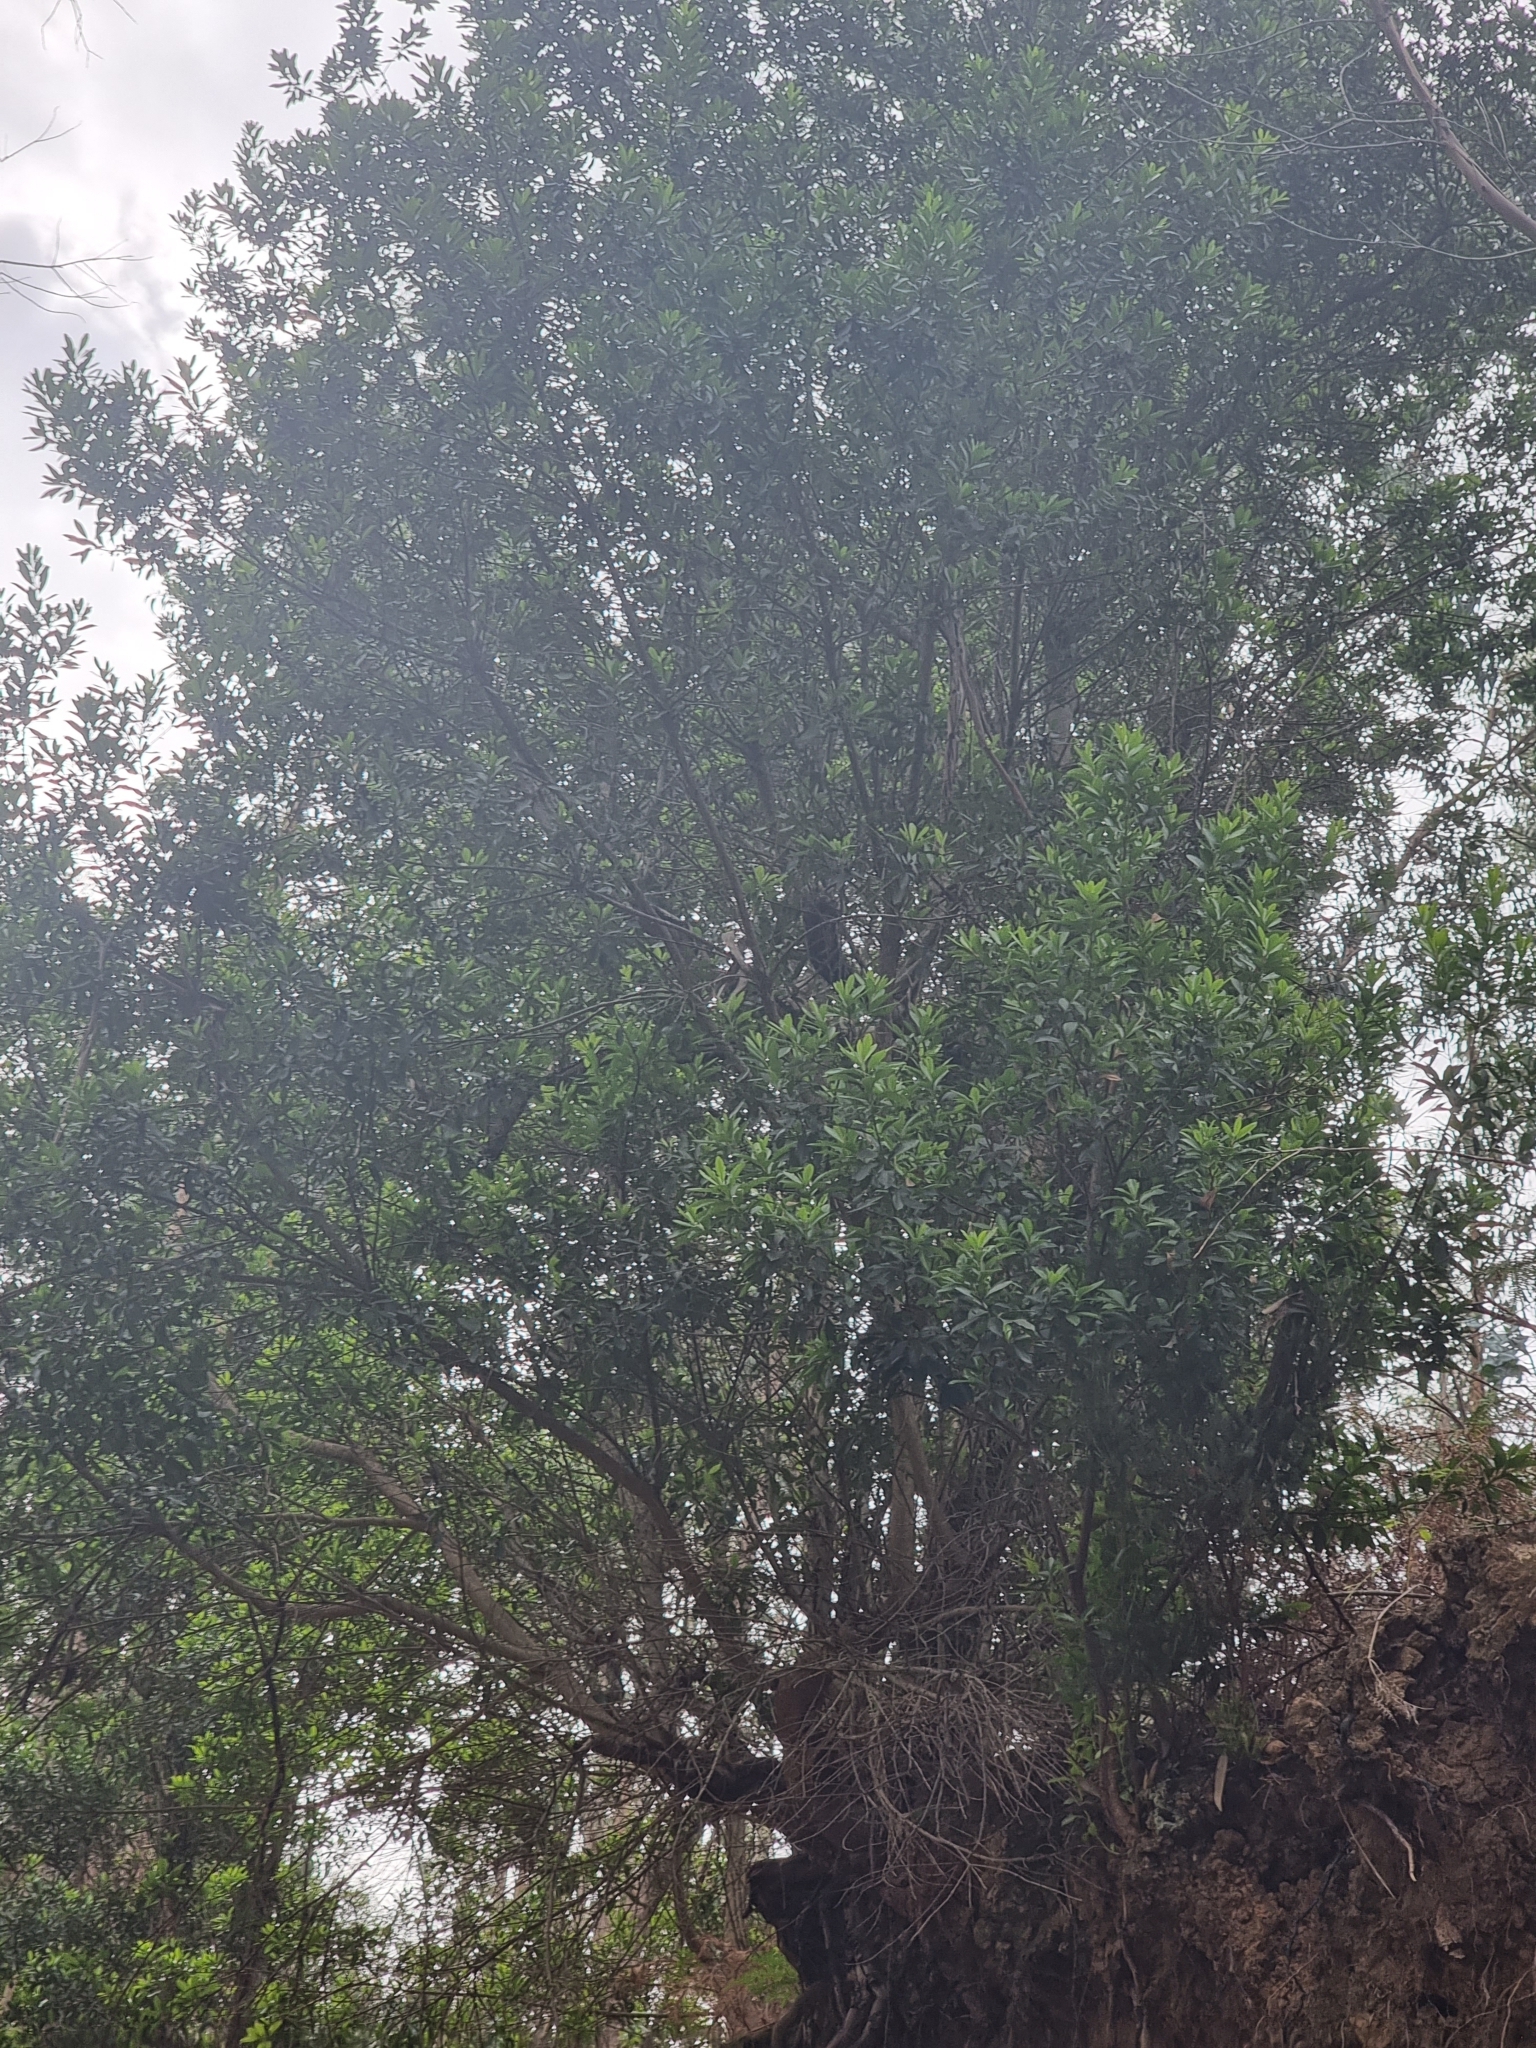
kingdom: Plantae
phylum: Tracheophyta
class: Magnoliopsida
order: Fagales
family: Myricaceae
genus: Morella
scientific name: Morella faya
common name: Firetree
